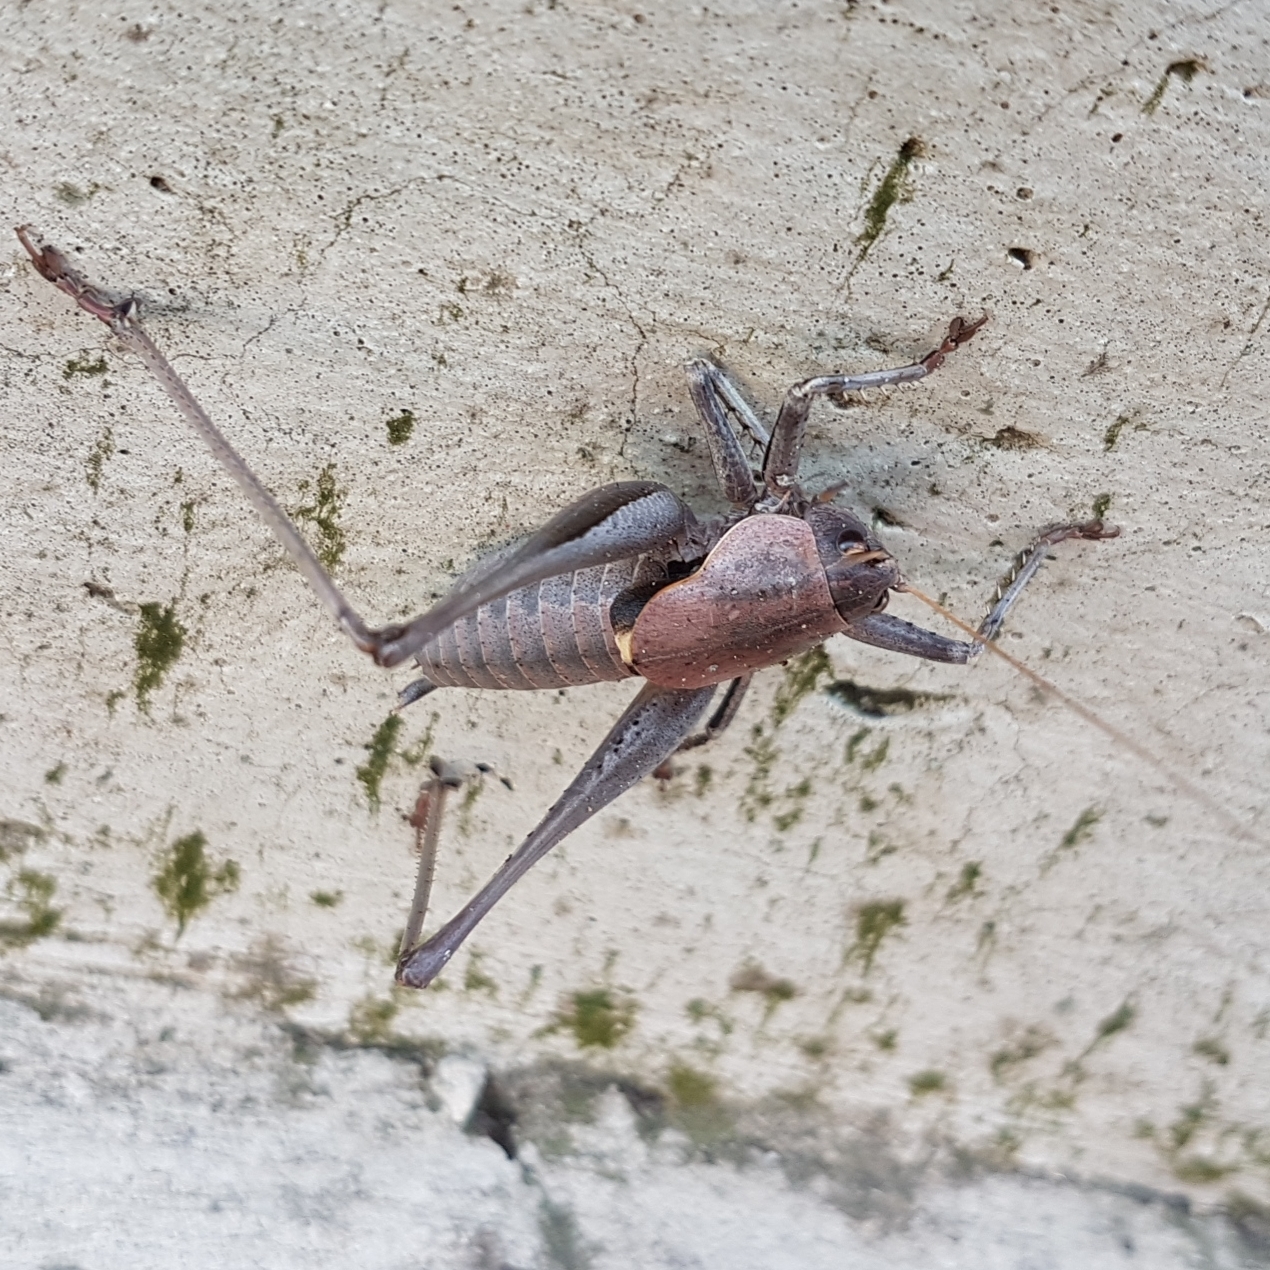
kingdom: Animalia
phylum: Arthropoda
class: Insecta
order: Orthoptera
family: Tettigoniidae
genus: Thyreonotus
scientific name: Thyreonotus corsicus
